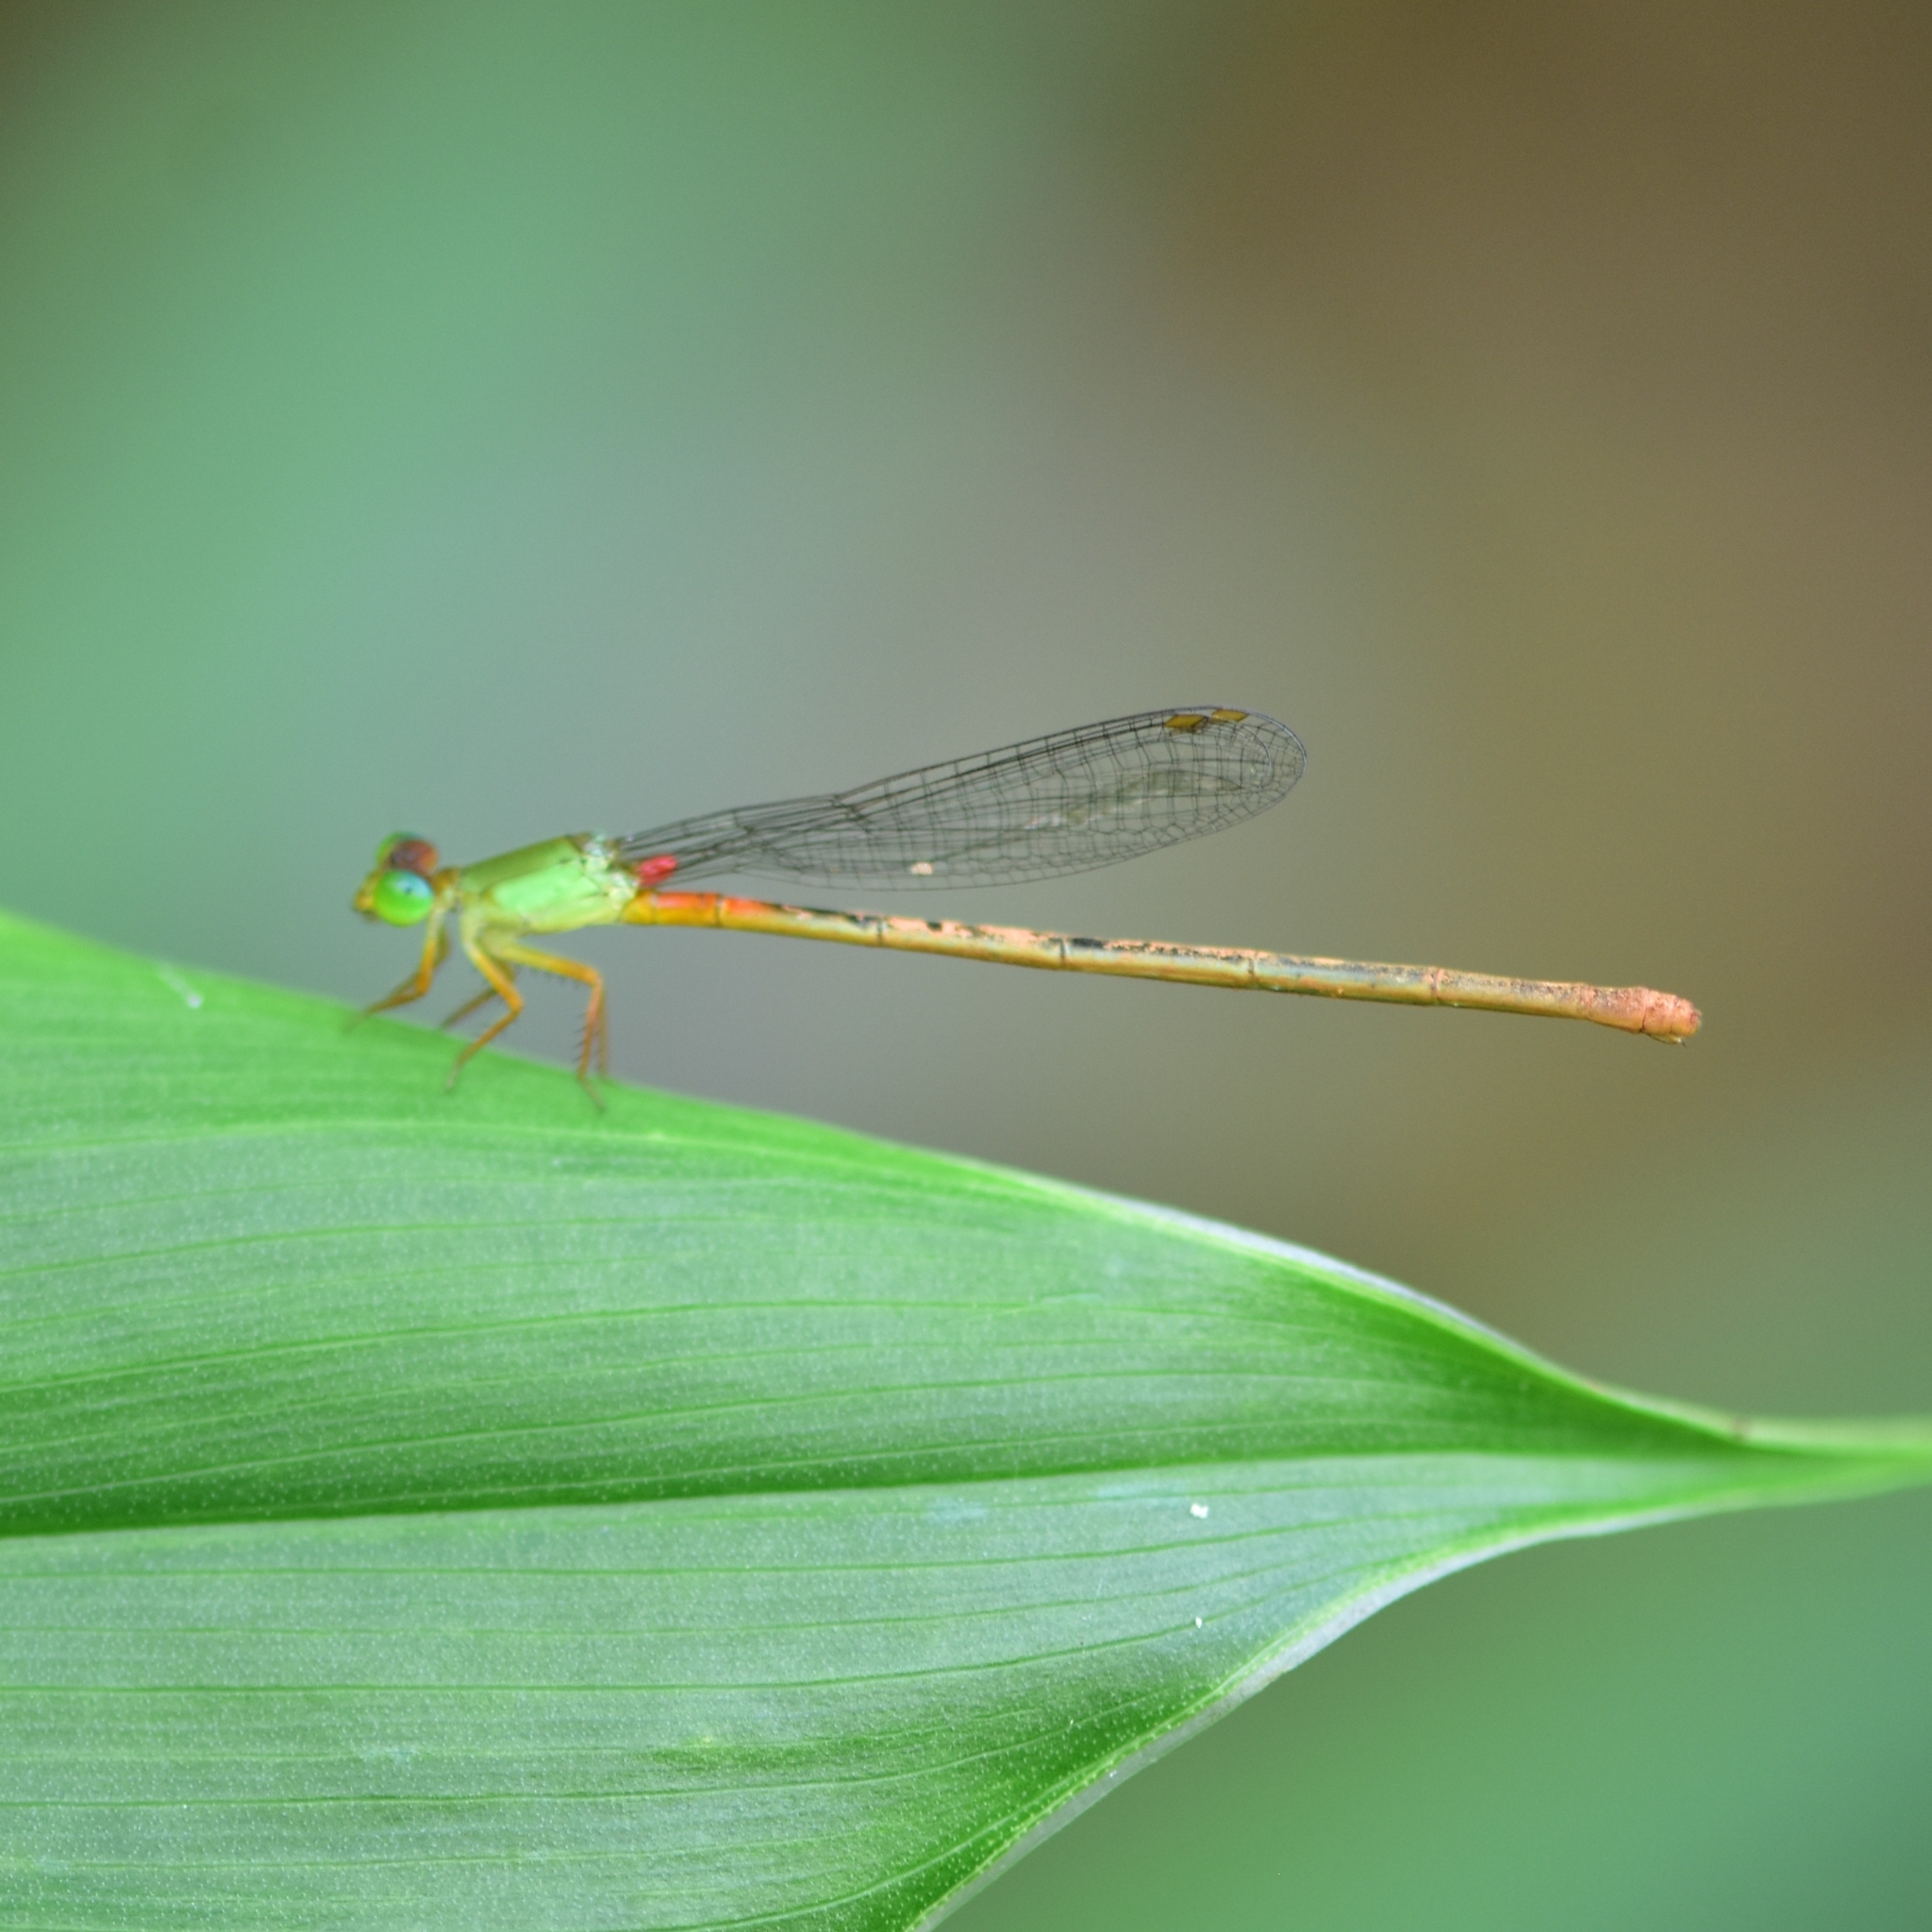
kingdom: Animalia
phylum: Arthropoda
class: Insecta
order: Odonata
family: Coenagrionidae
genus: Ceriagrion
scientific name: Ceriagrion cerinorubellum
